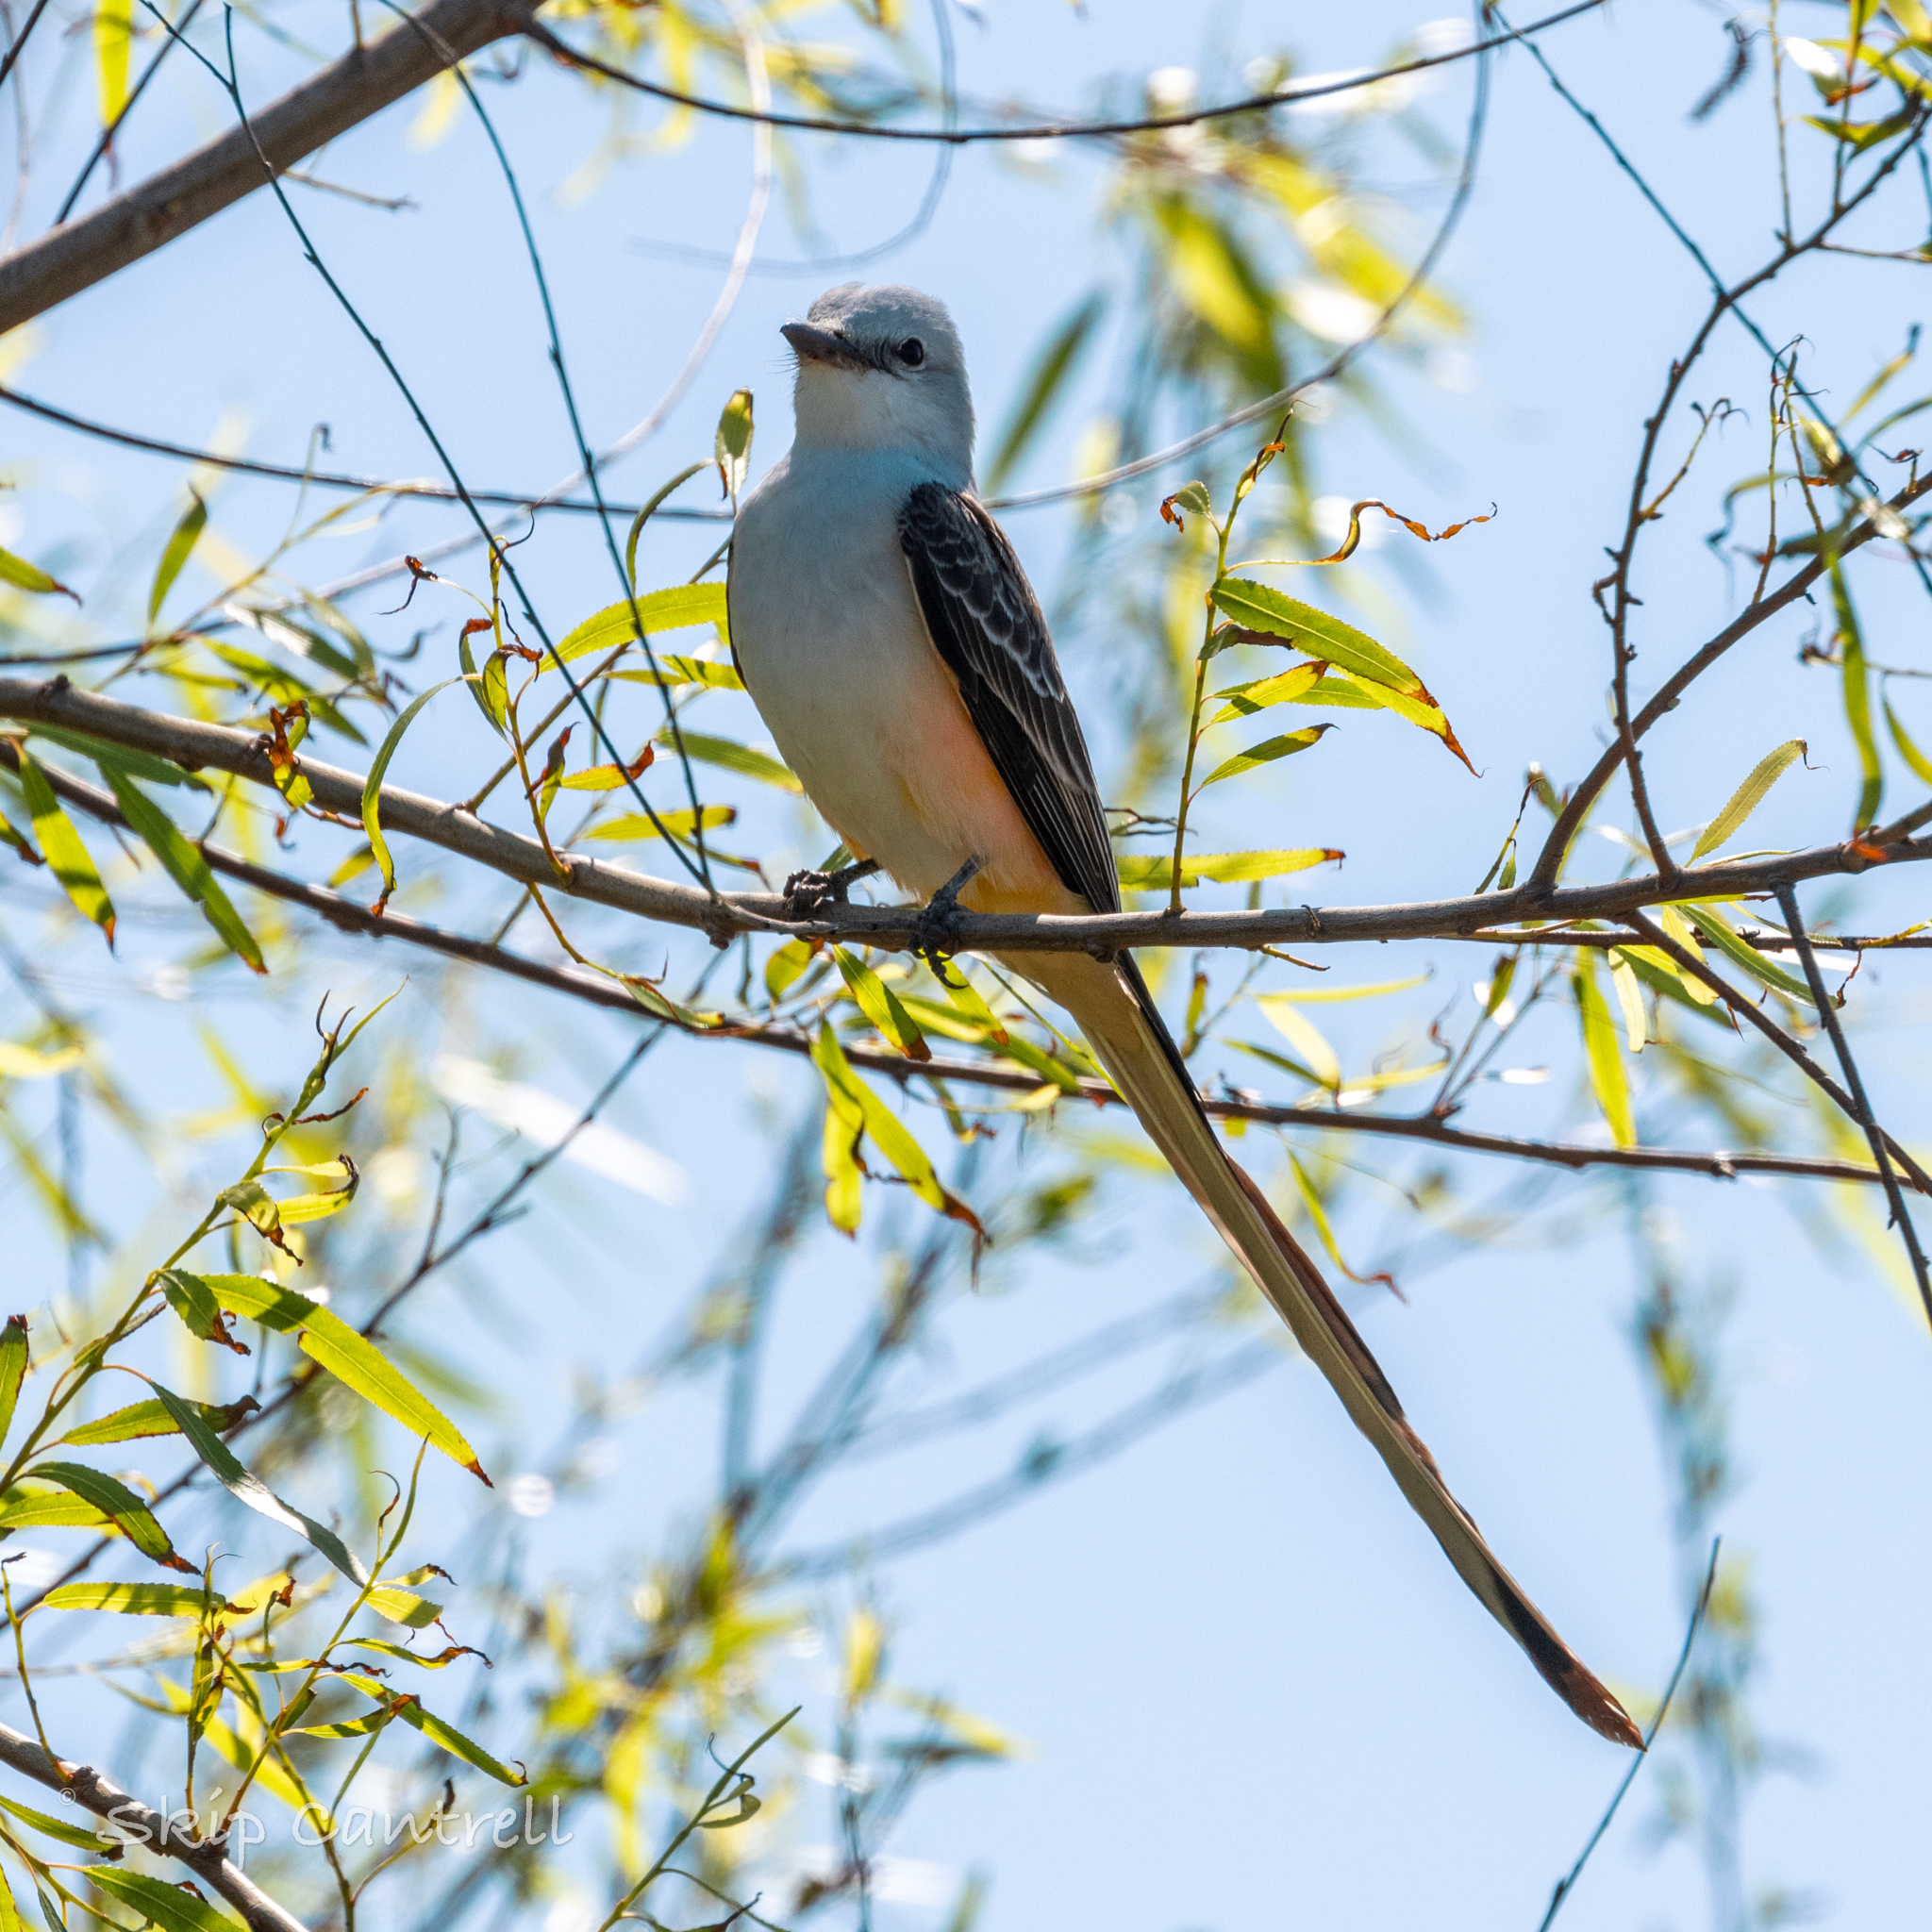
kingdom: Animalia
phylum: Chordata
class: Aves
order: Passeriformes
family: Tyrannidae
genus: Tyrannus
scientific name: Tyrannus forficatus
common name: Scissor-tailed flycatcher
